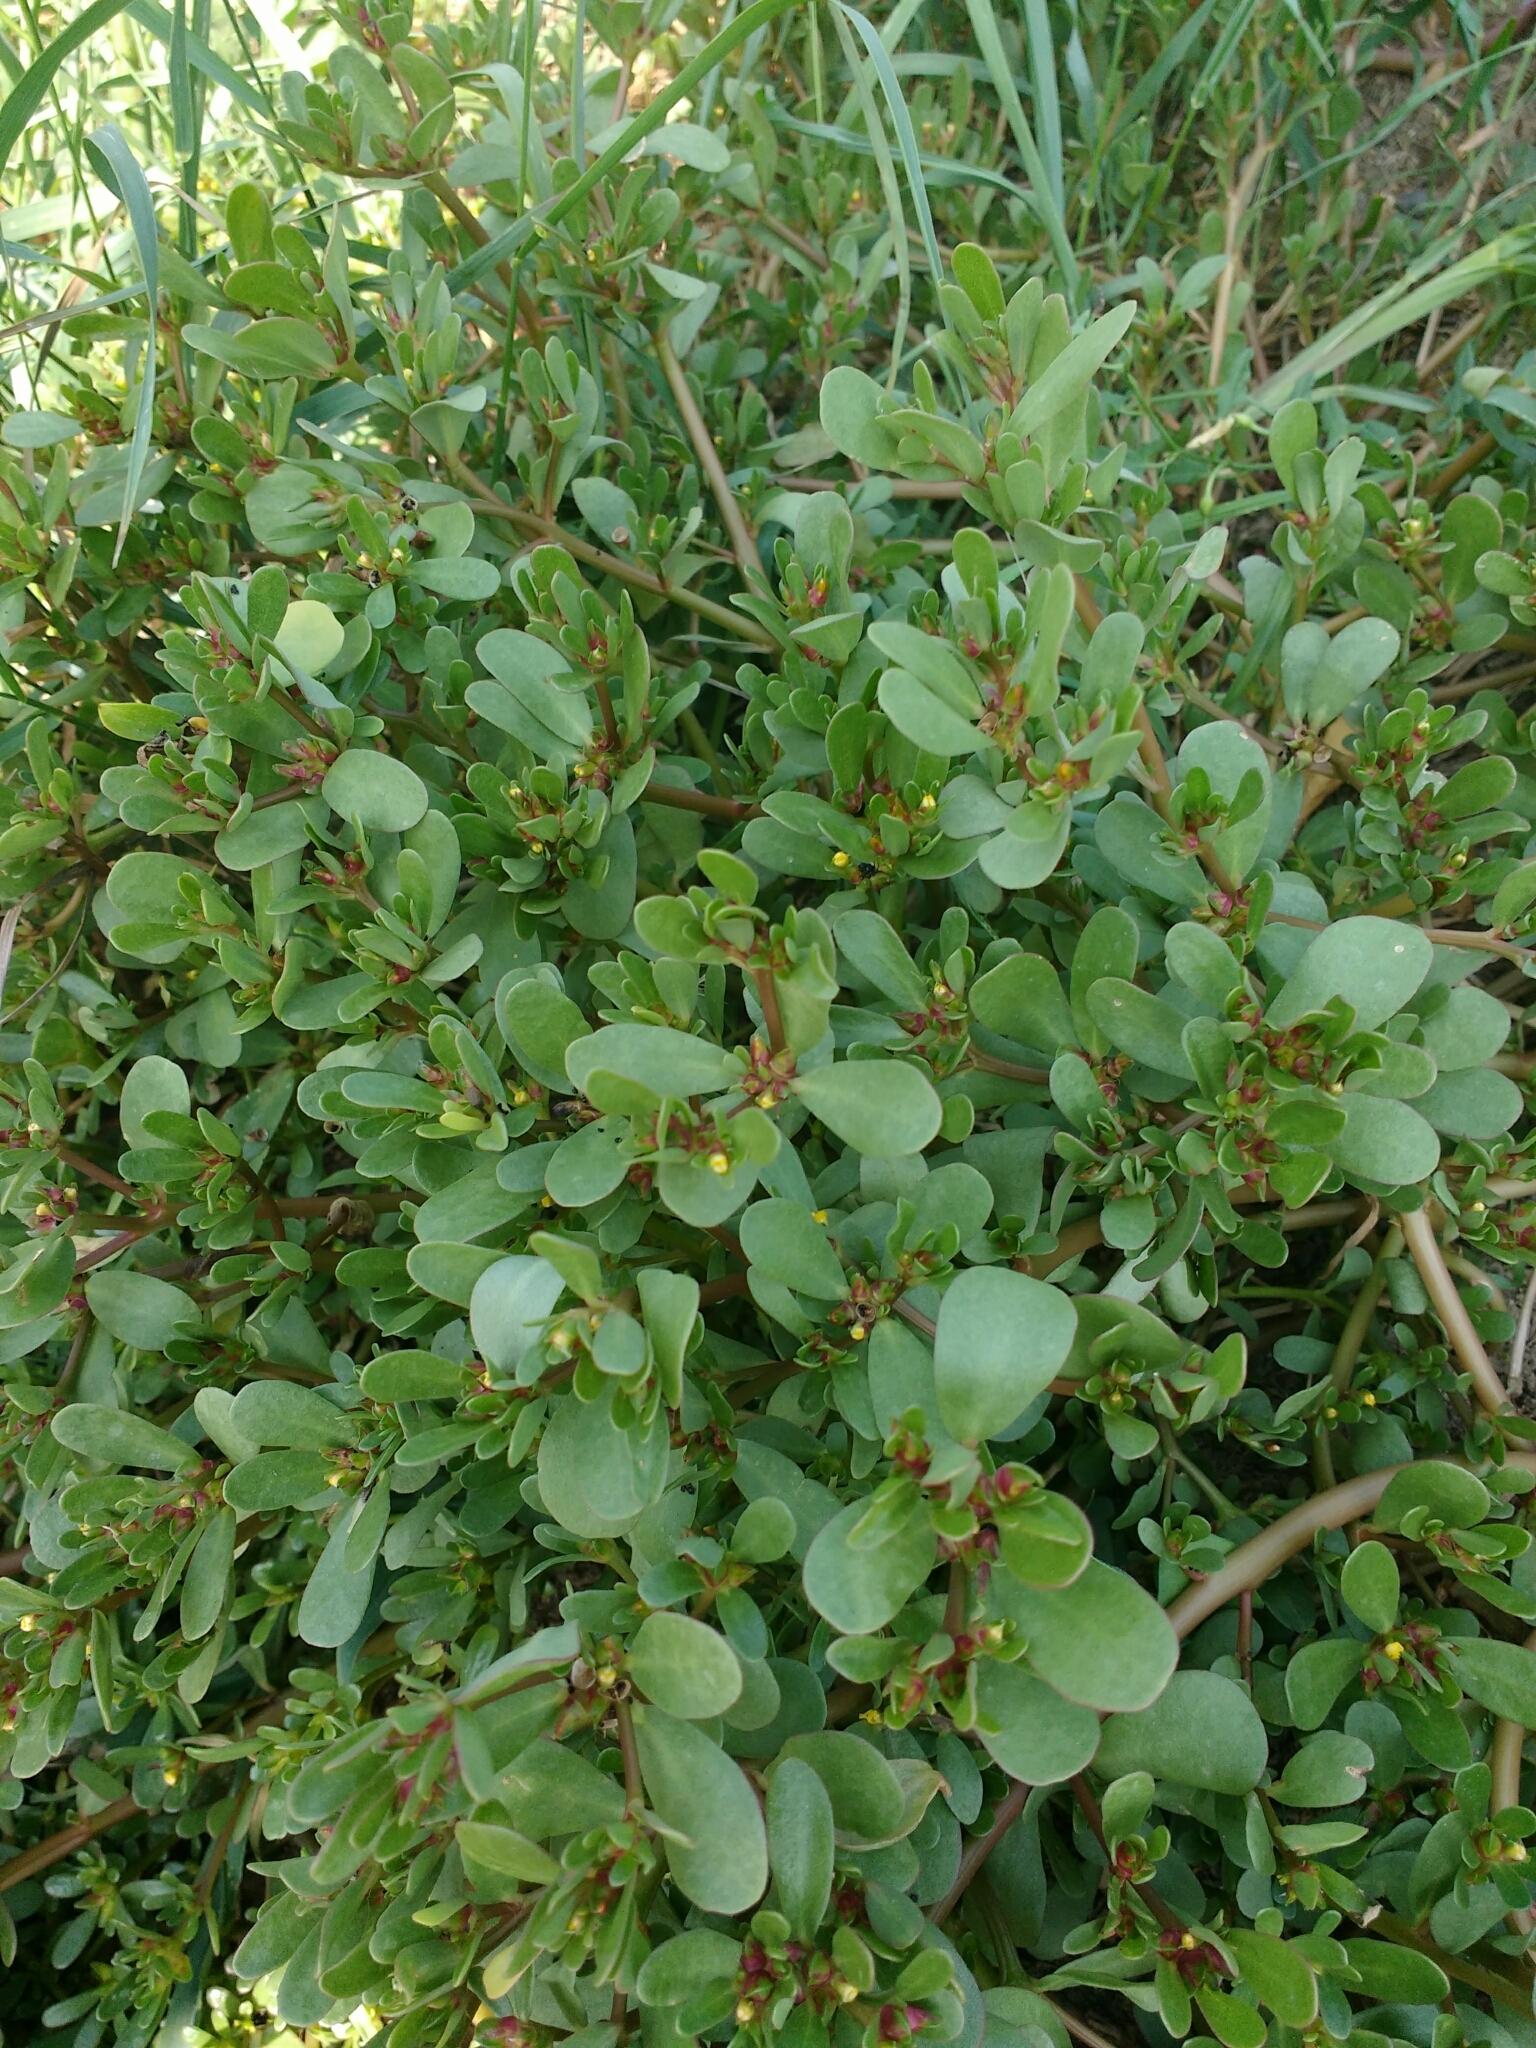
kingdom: Plantae
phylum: Tracheophyta
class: Magnoliopsida
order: Caryophyllales
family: Portulacaceae
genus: Portulaca
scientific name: Portulaca oleracea
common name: Common purslane
